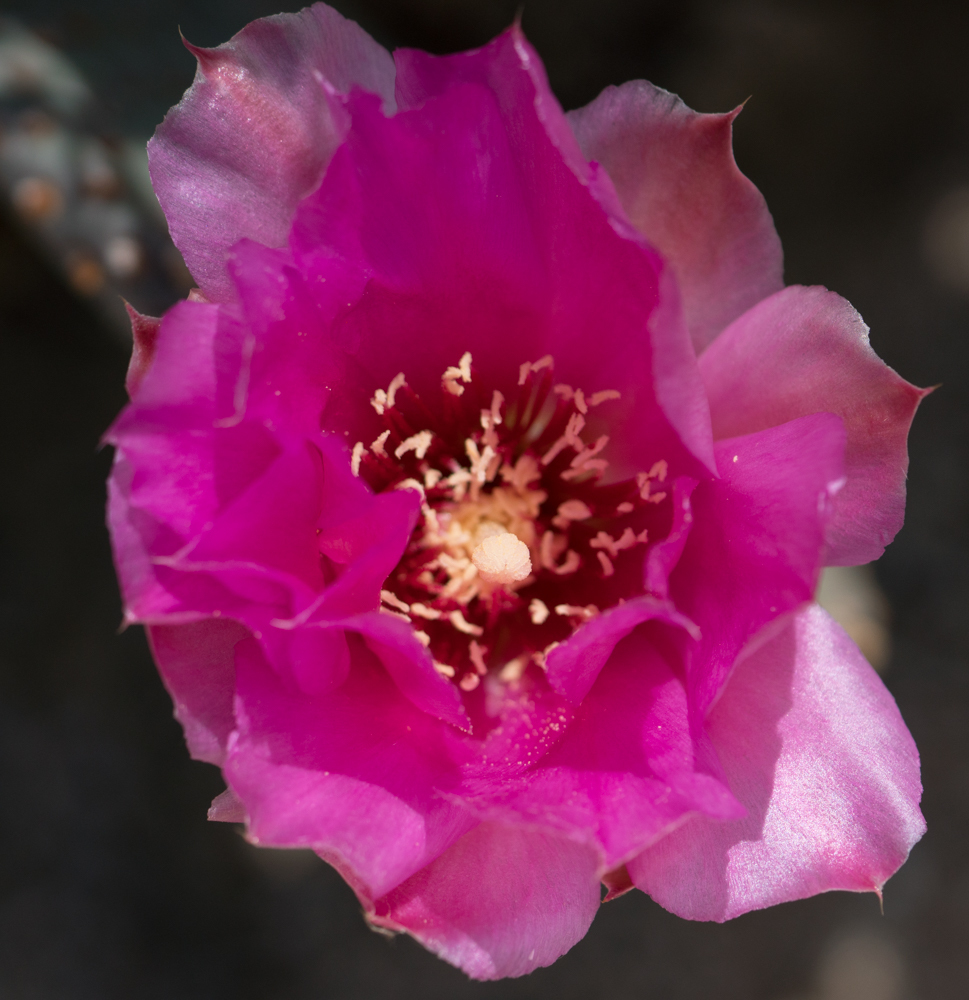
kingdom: Plantae
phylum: Tracheophyta
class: Magnoliopsida
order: Caryophyllales
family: Cactaceae
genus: Opuntia
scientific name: Opuntia basilaris
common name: Beavertail prickly-pear
